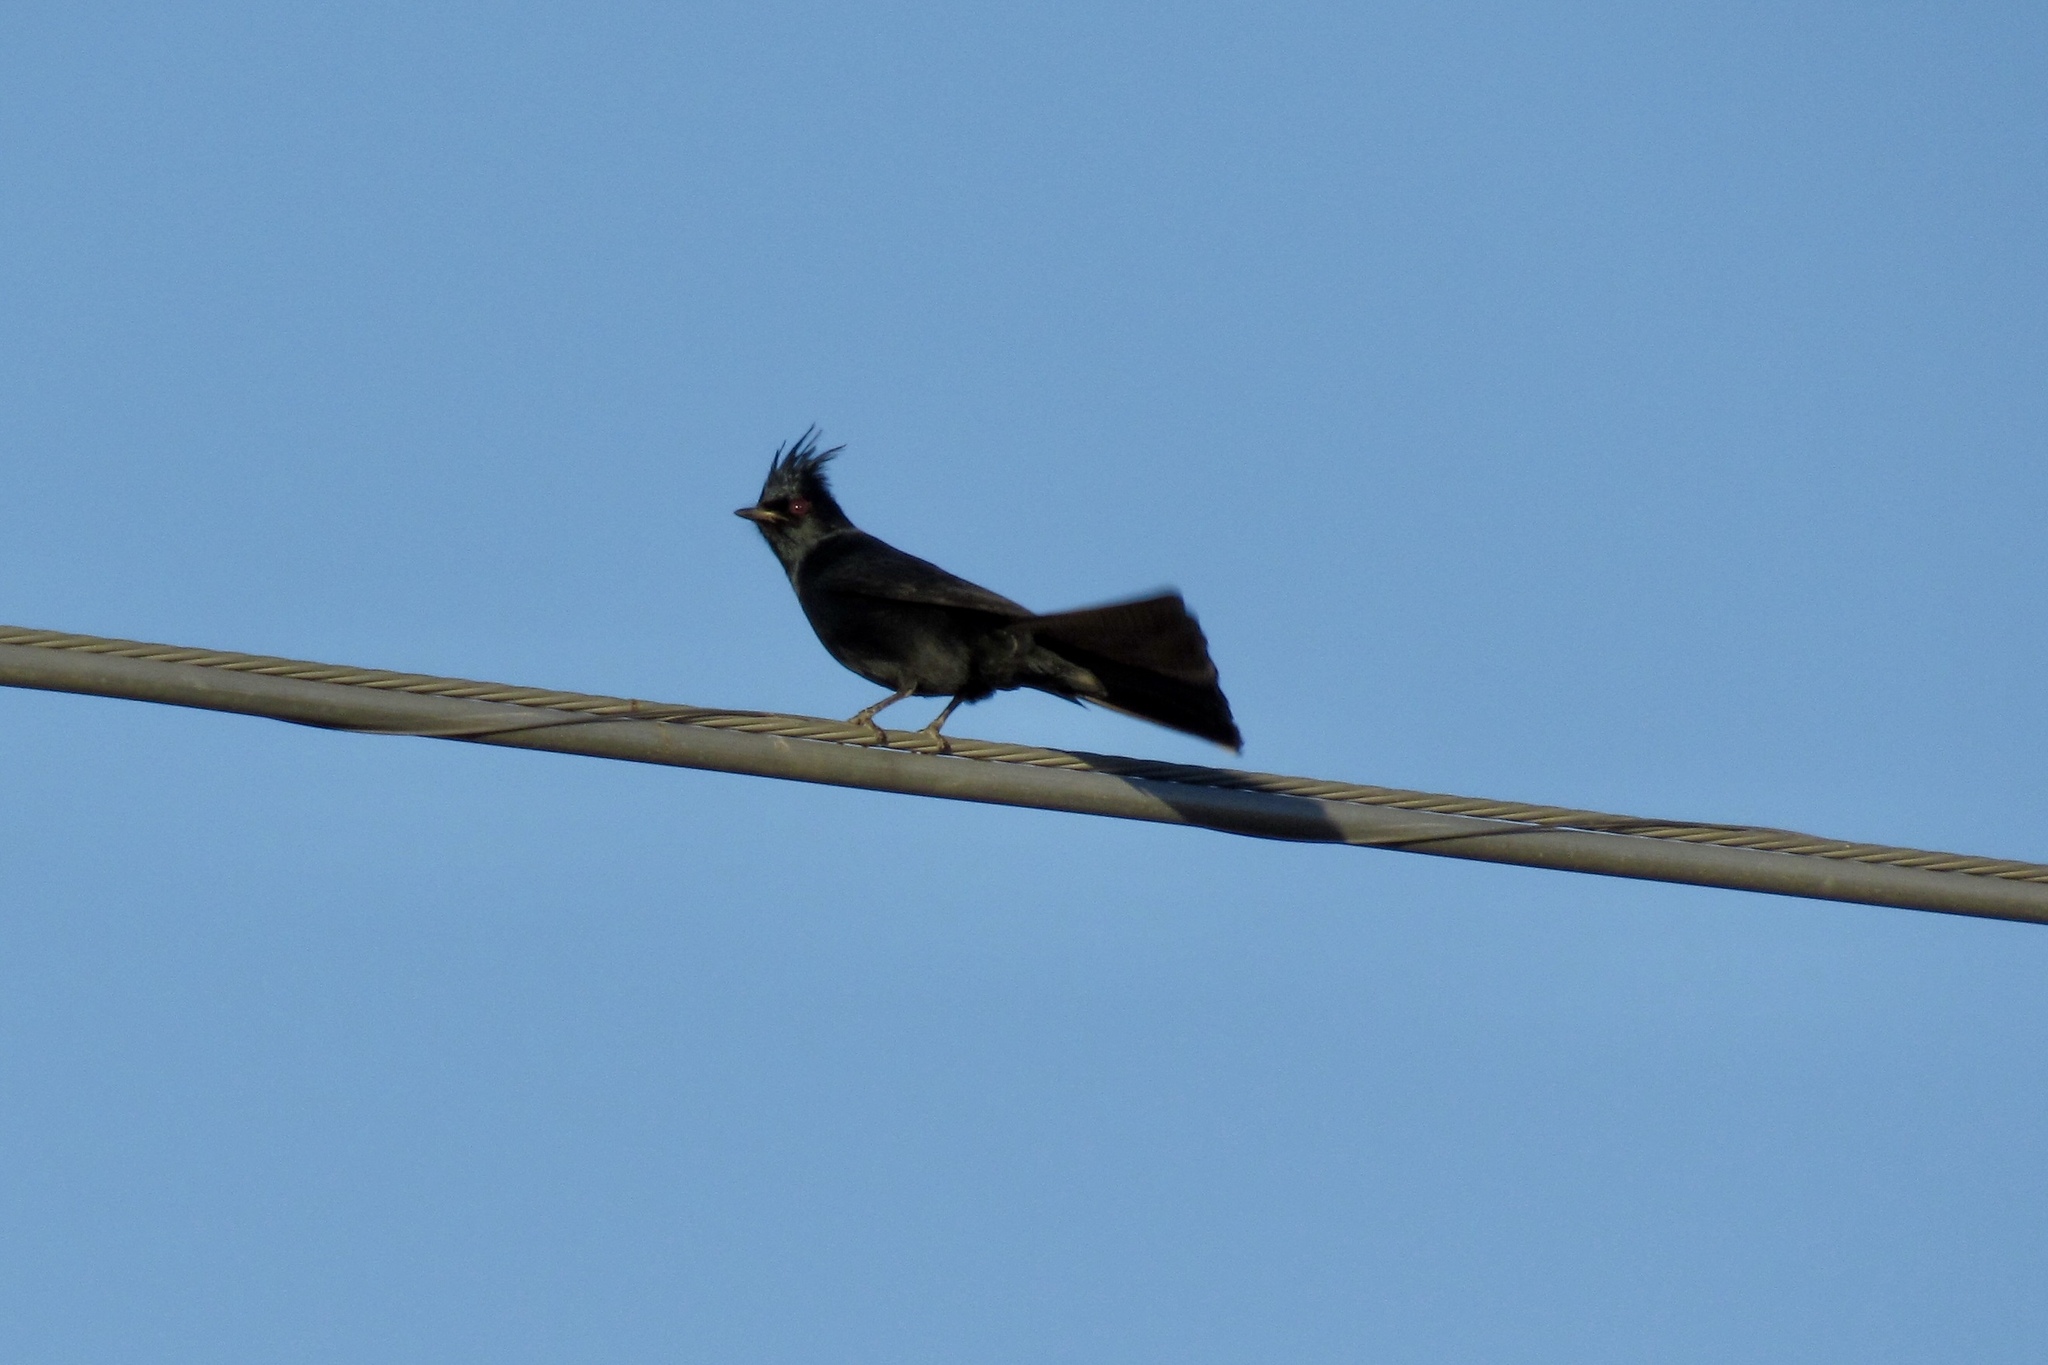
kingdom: Animalia
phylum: Chordata
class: Aves
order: Passeriformes
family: Ptilogonatidae
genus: Phainopepla
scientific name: Phainopepla nitens
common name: Phainopepla
